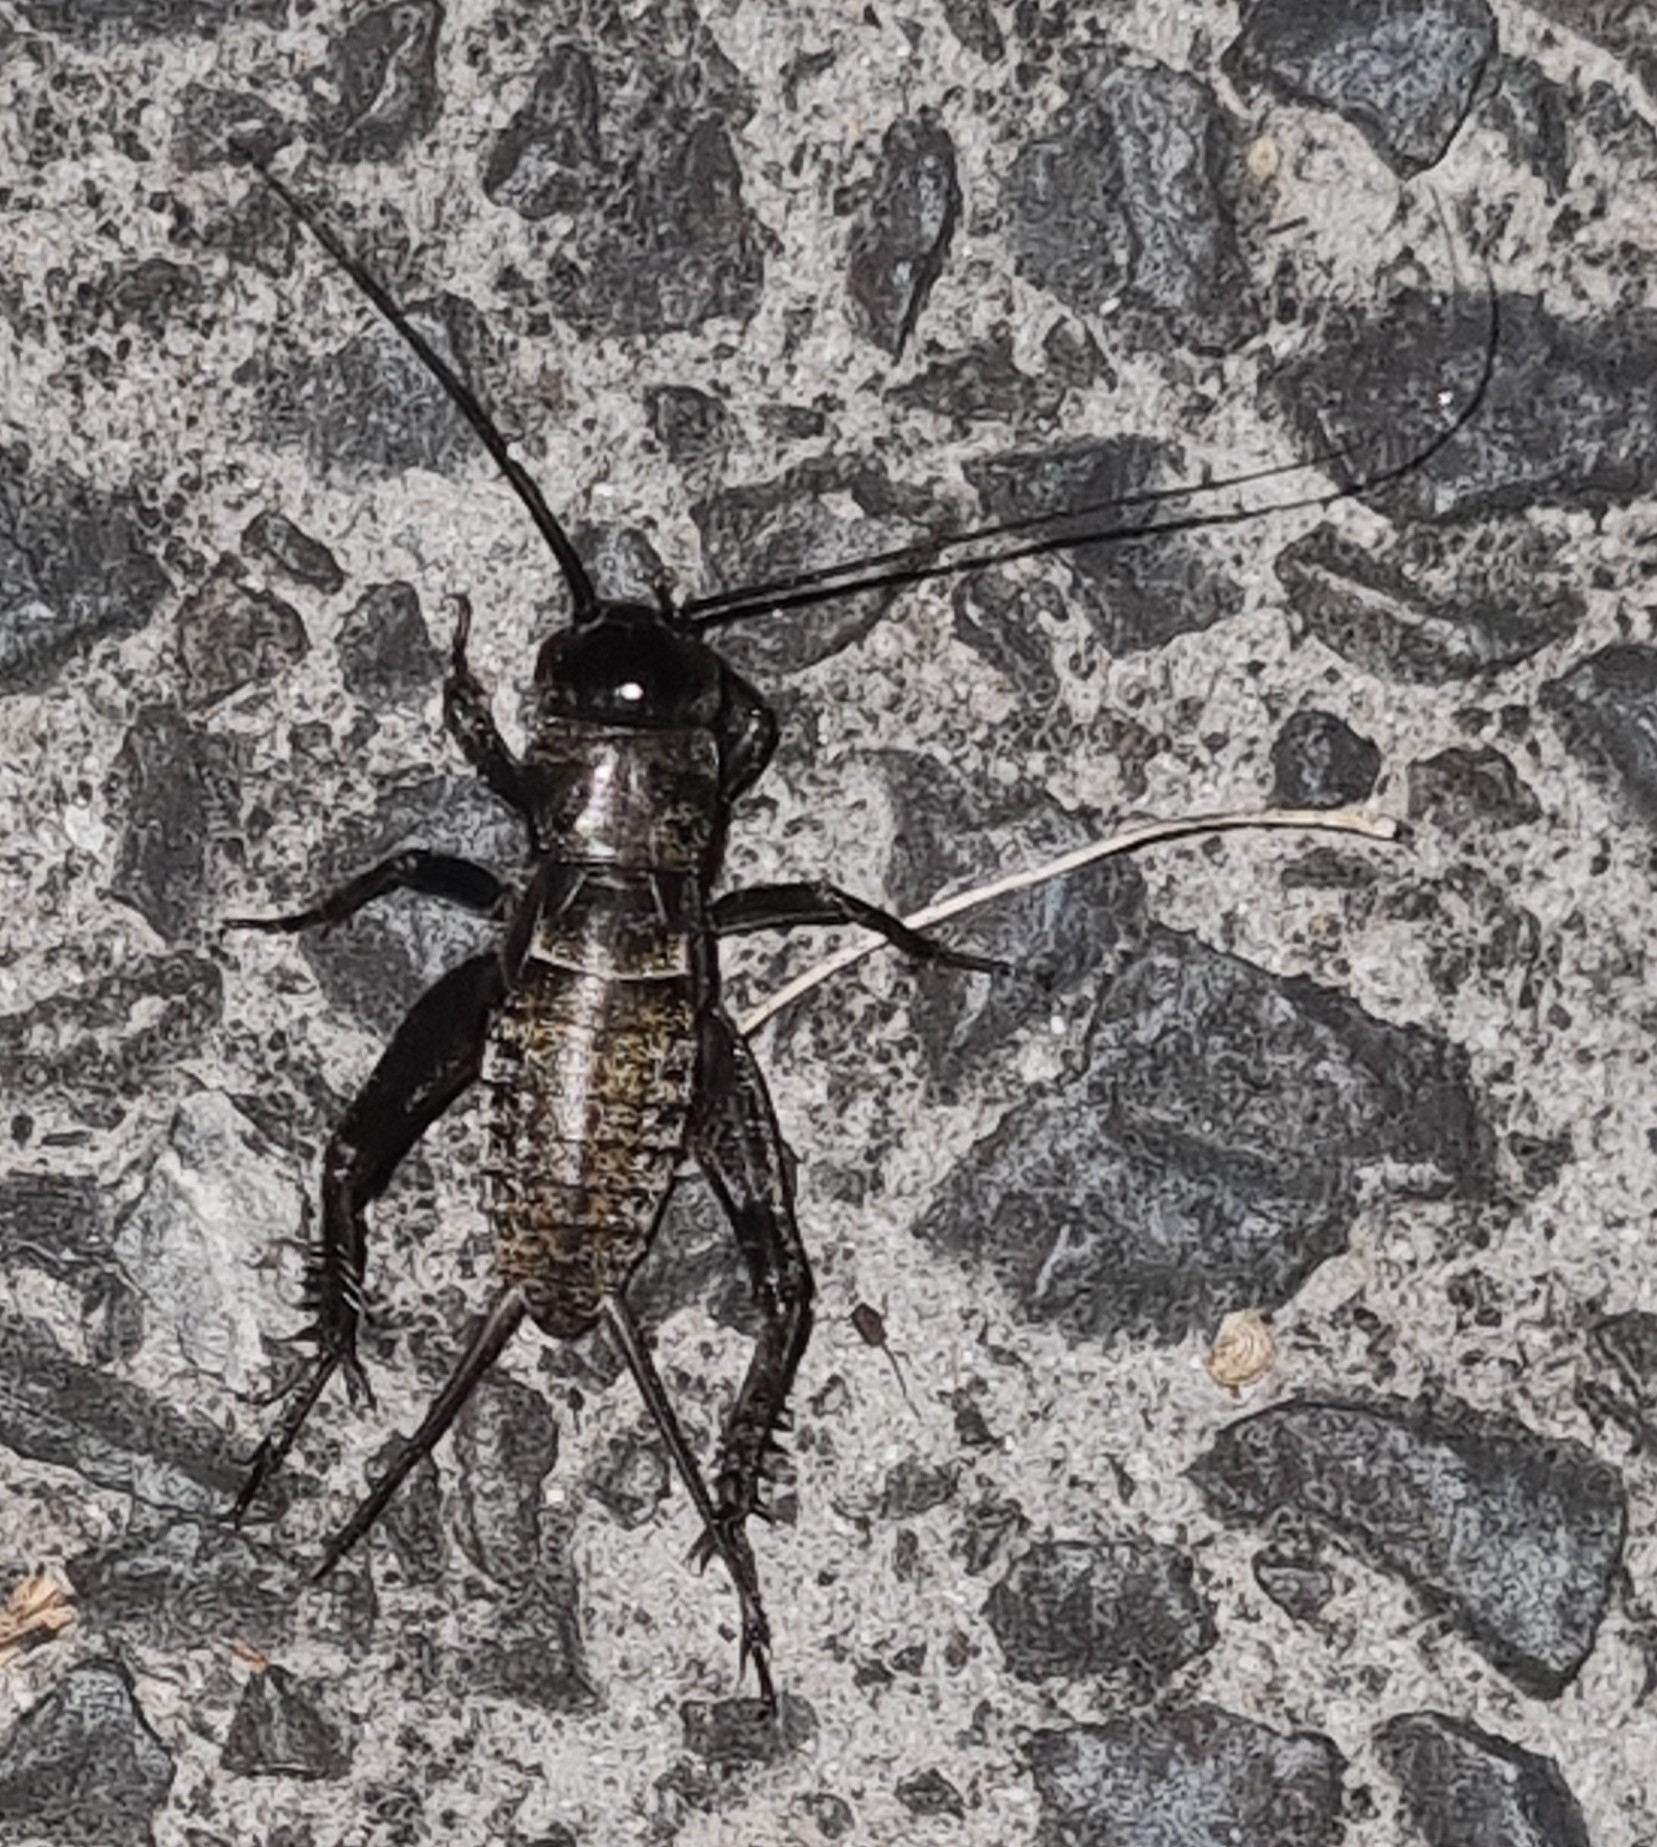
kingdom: Animalia
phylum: Arthropoda
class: Insecta
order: Orthoptera
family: Gryllidae
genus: Teleogryllus
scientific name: Teleogryllus commodus
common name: Black field cricket
